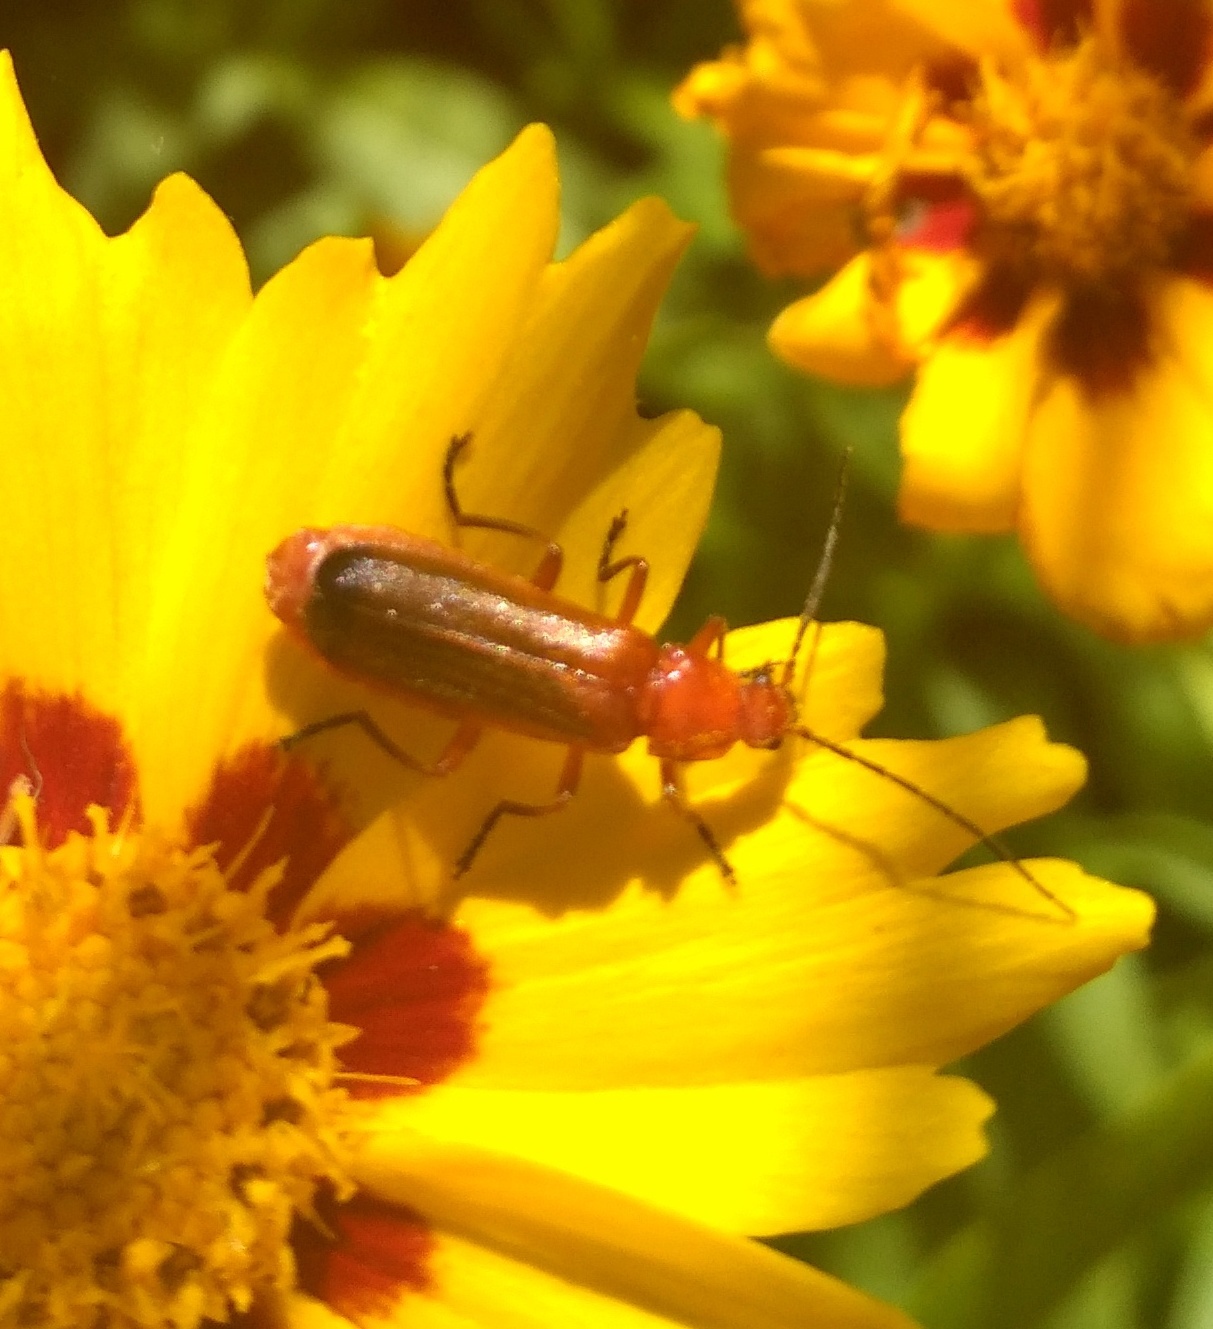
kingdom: Animalia
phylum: Arthropoda
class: Insecta
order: Coleoptera
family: Cantharidae
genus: Rhagonycha
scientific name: Rhagonycha fulva
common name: Common red soldier beetle
